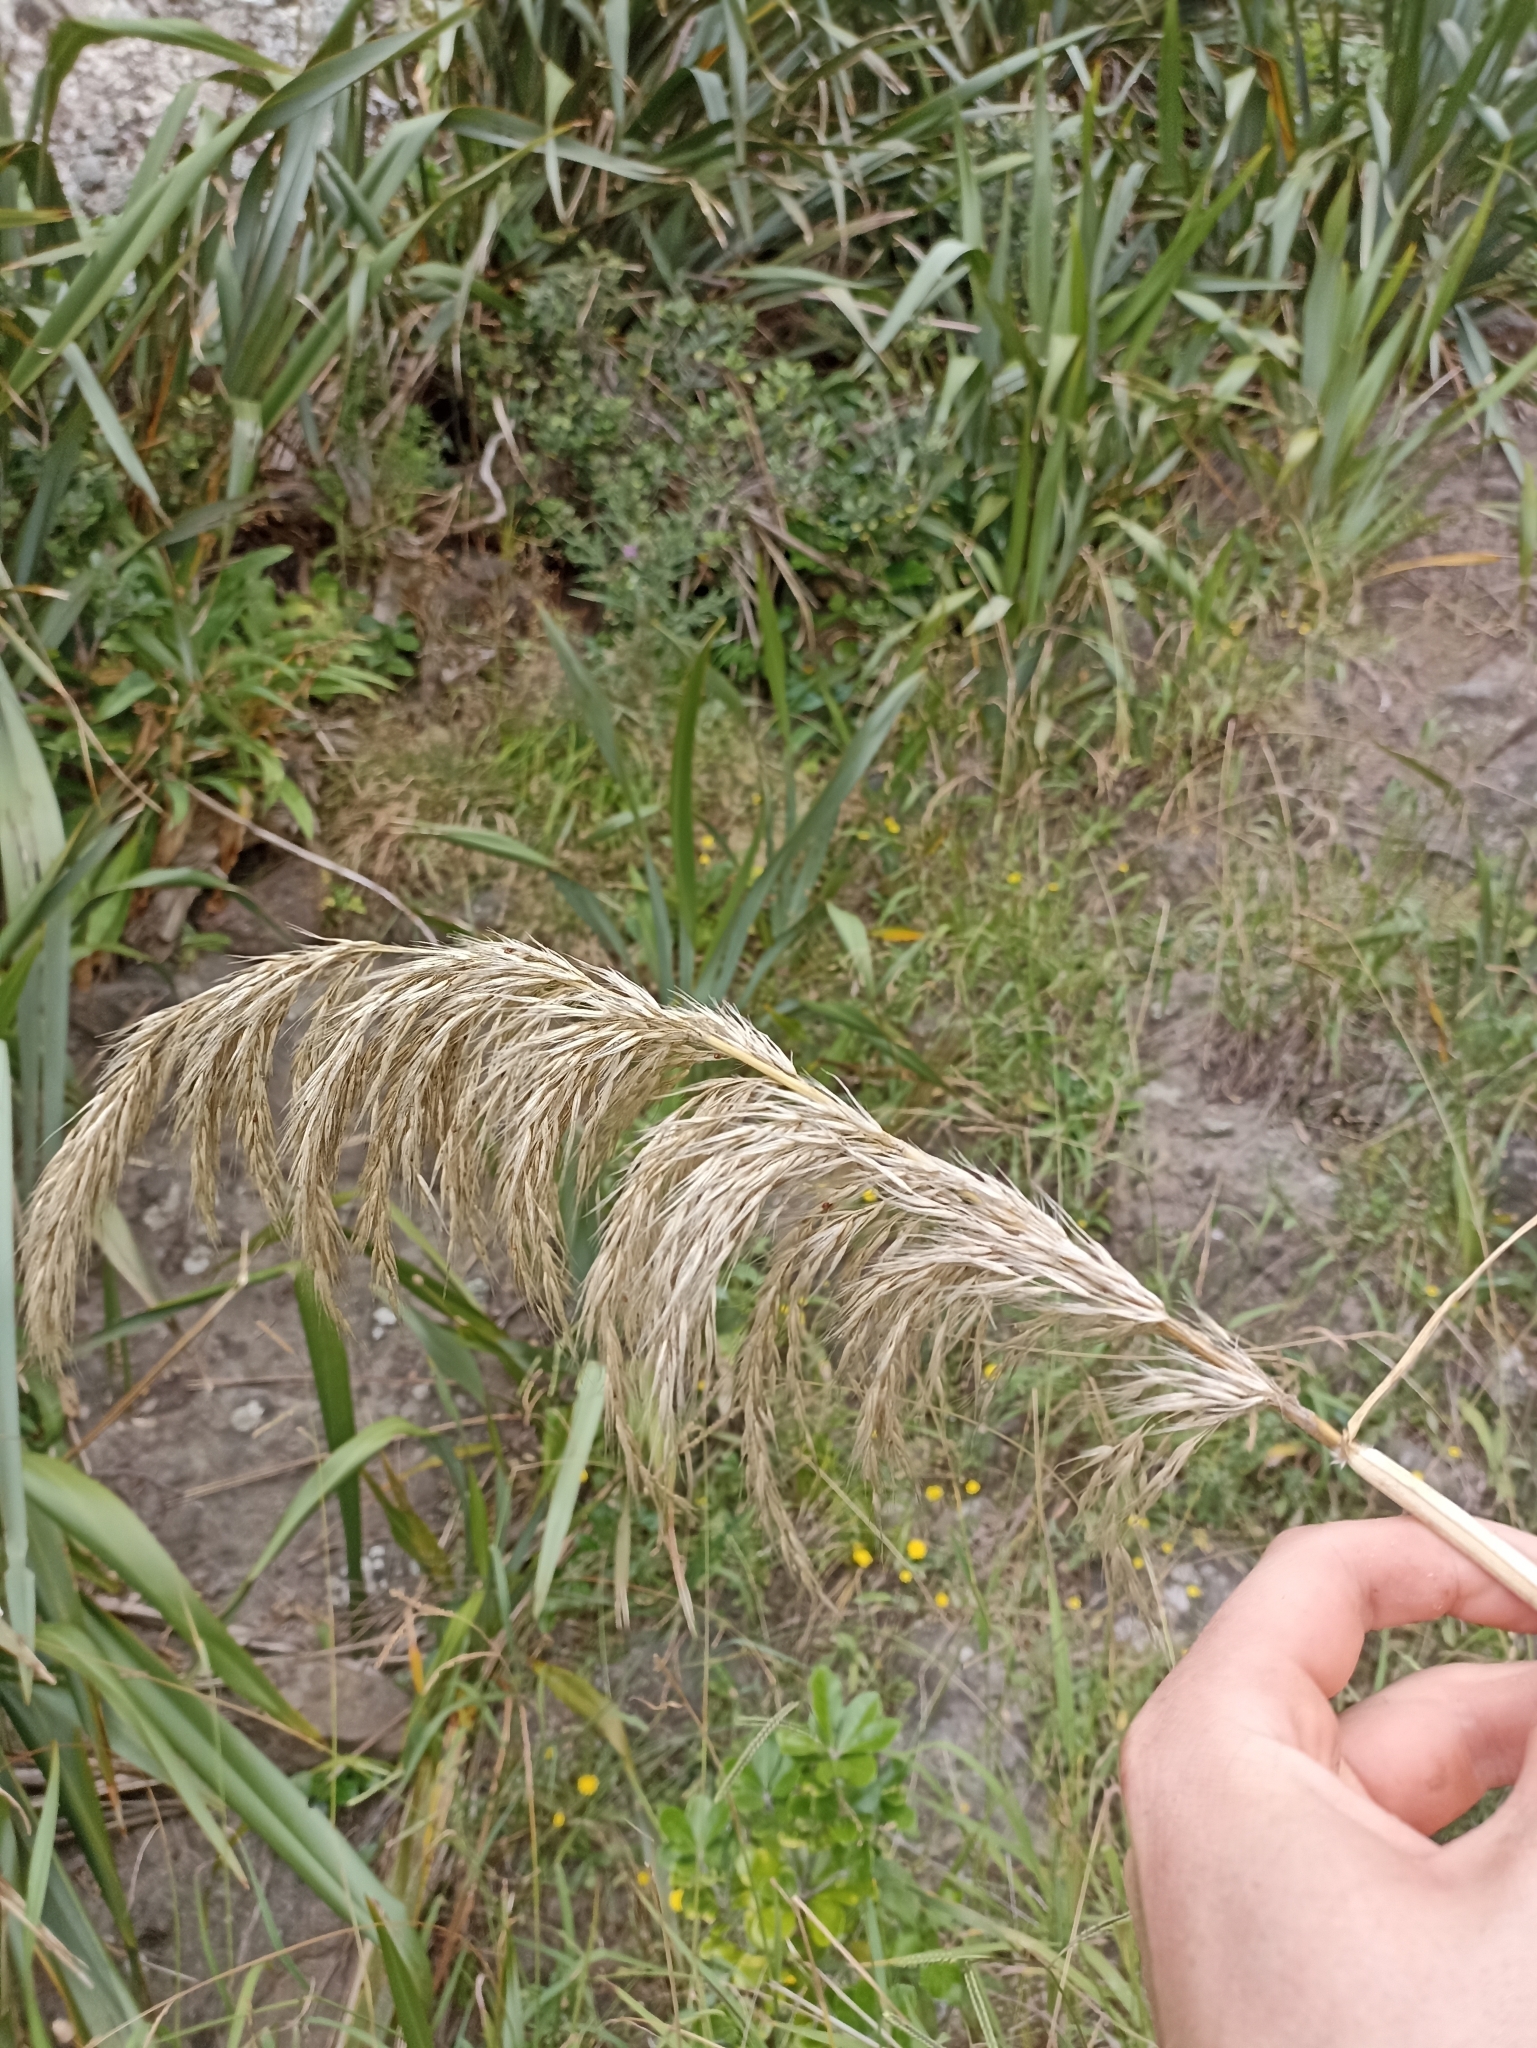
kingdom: Plantae
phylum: Tracheophyta
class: Liliopsida
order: Poales
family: Poaceae
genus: Austroderia
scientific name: Austroderia splendens
